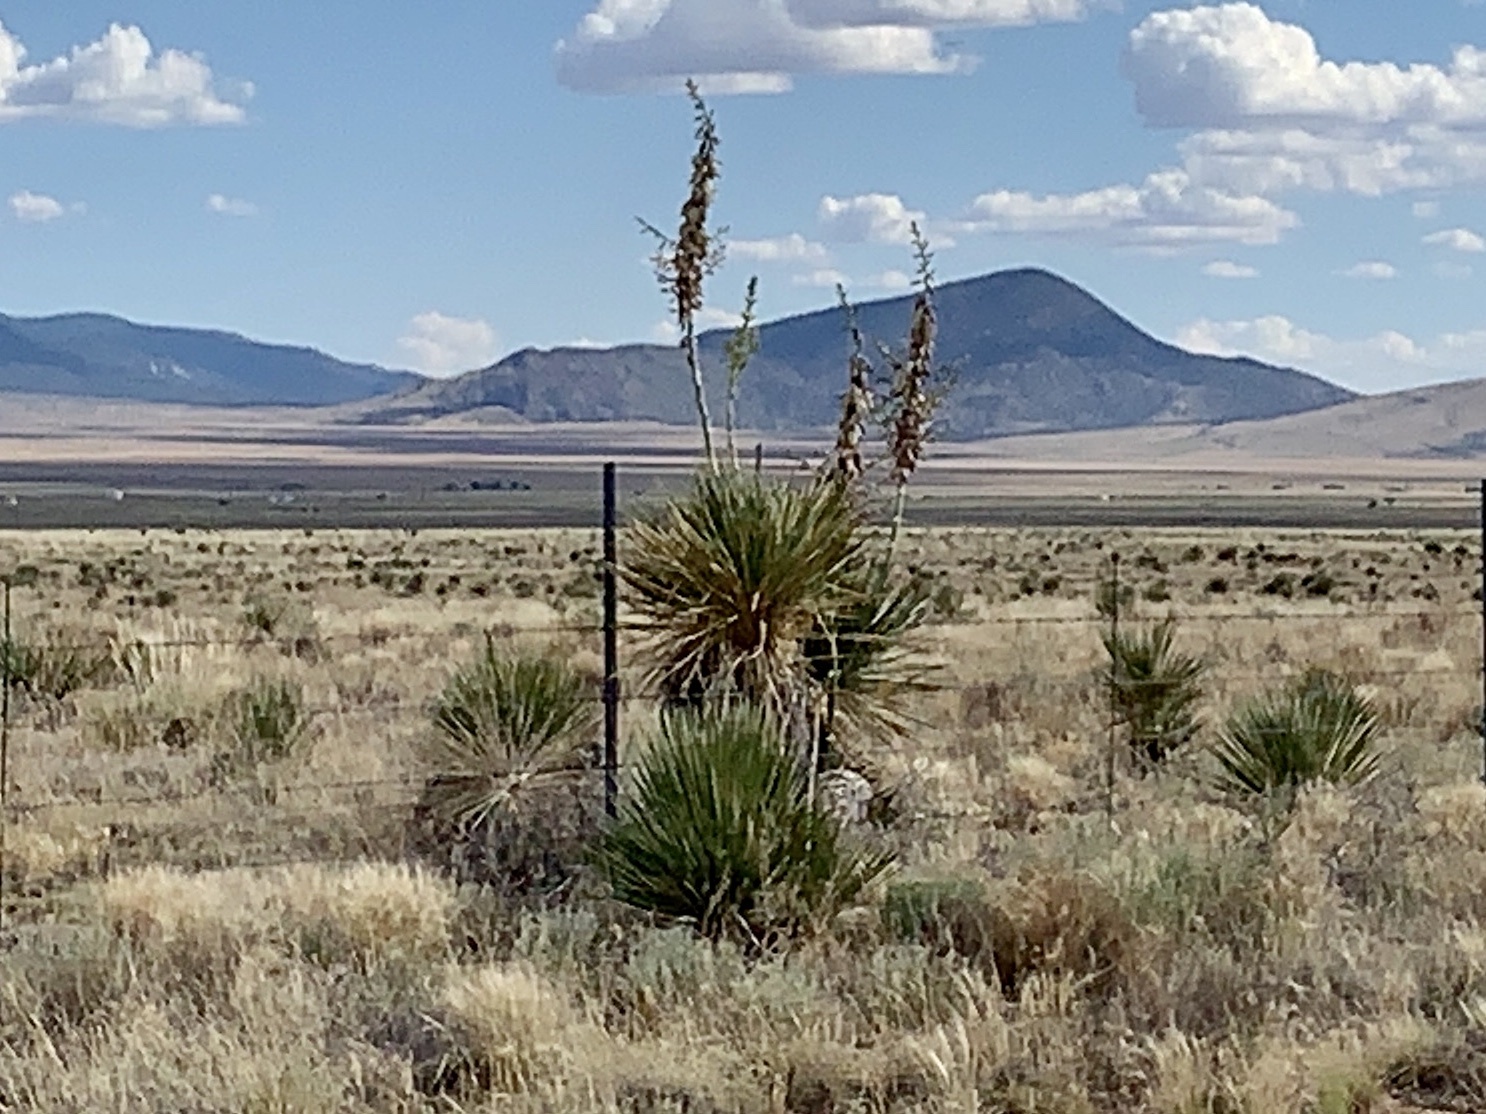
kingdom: Plantae
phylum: Tracheophyta
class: Liliopsida
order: Asparagales
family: Asparagaceae
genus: Yucca
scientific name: Yucca elata
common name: Palmella
